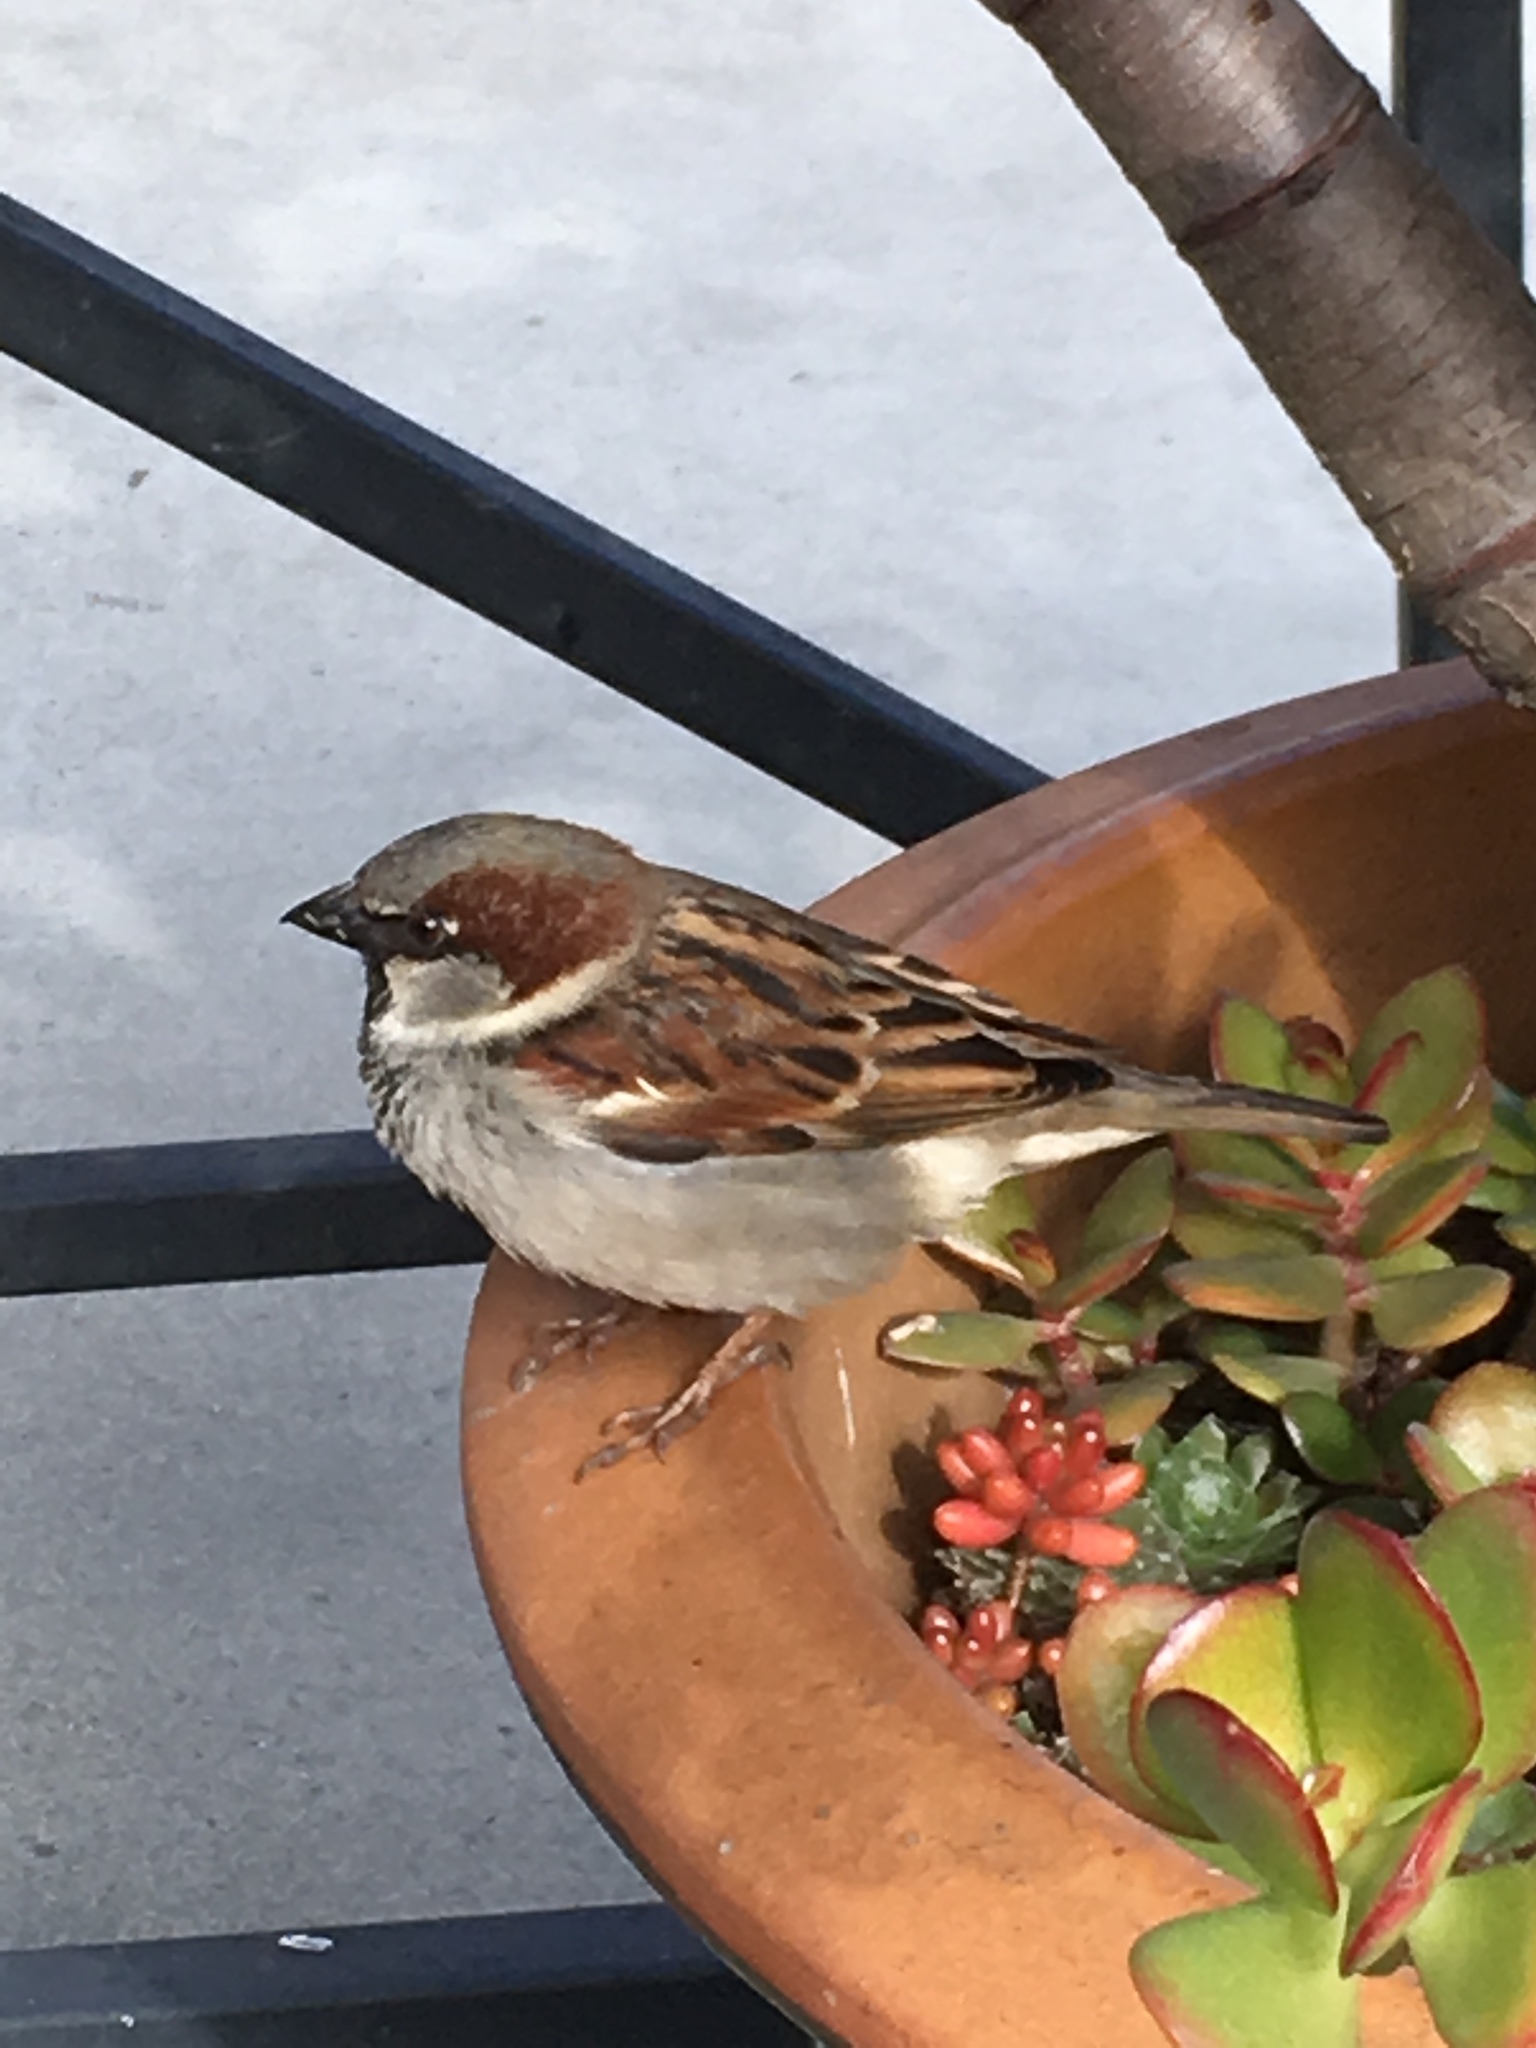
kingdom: Animalia
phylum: Chordata
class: Aves
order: Passeriformes
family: Passeridae
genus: Passer
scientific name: Passer domesticus
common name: House sparrow
